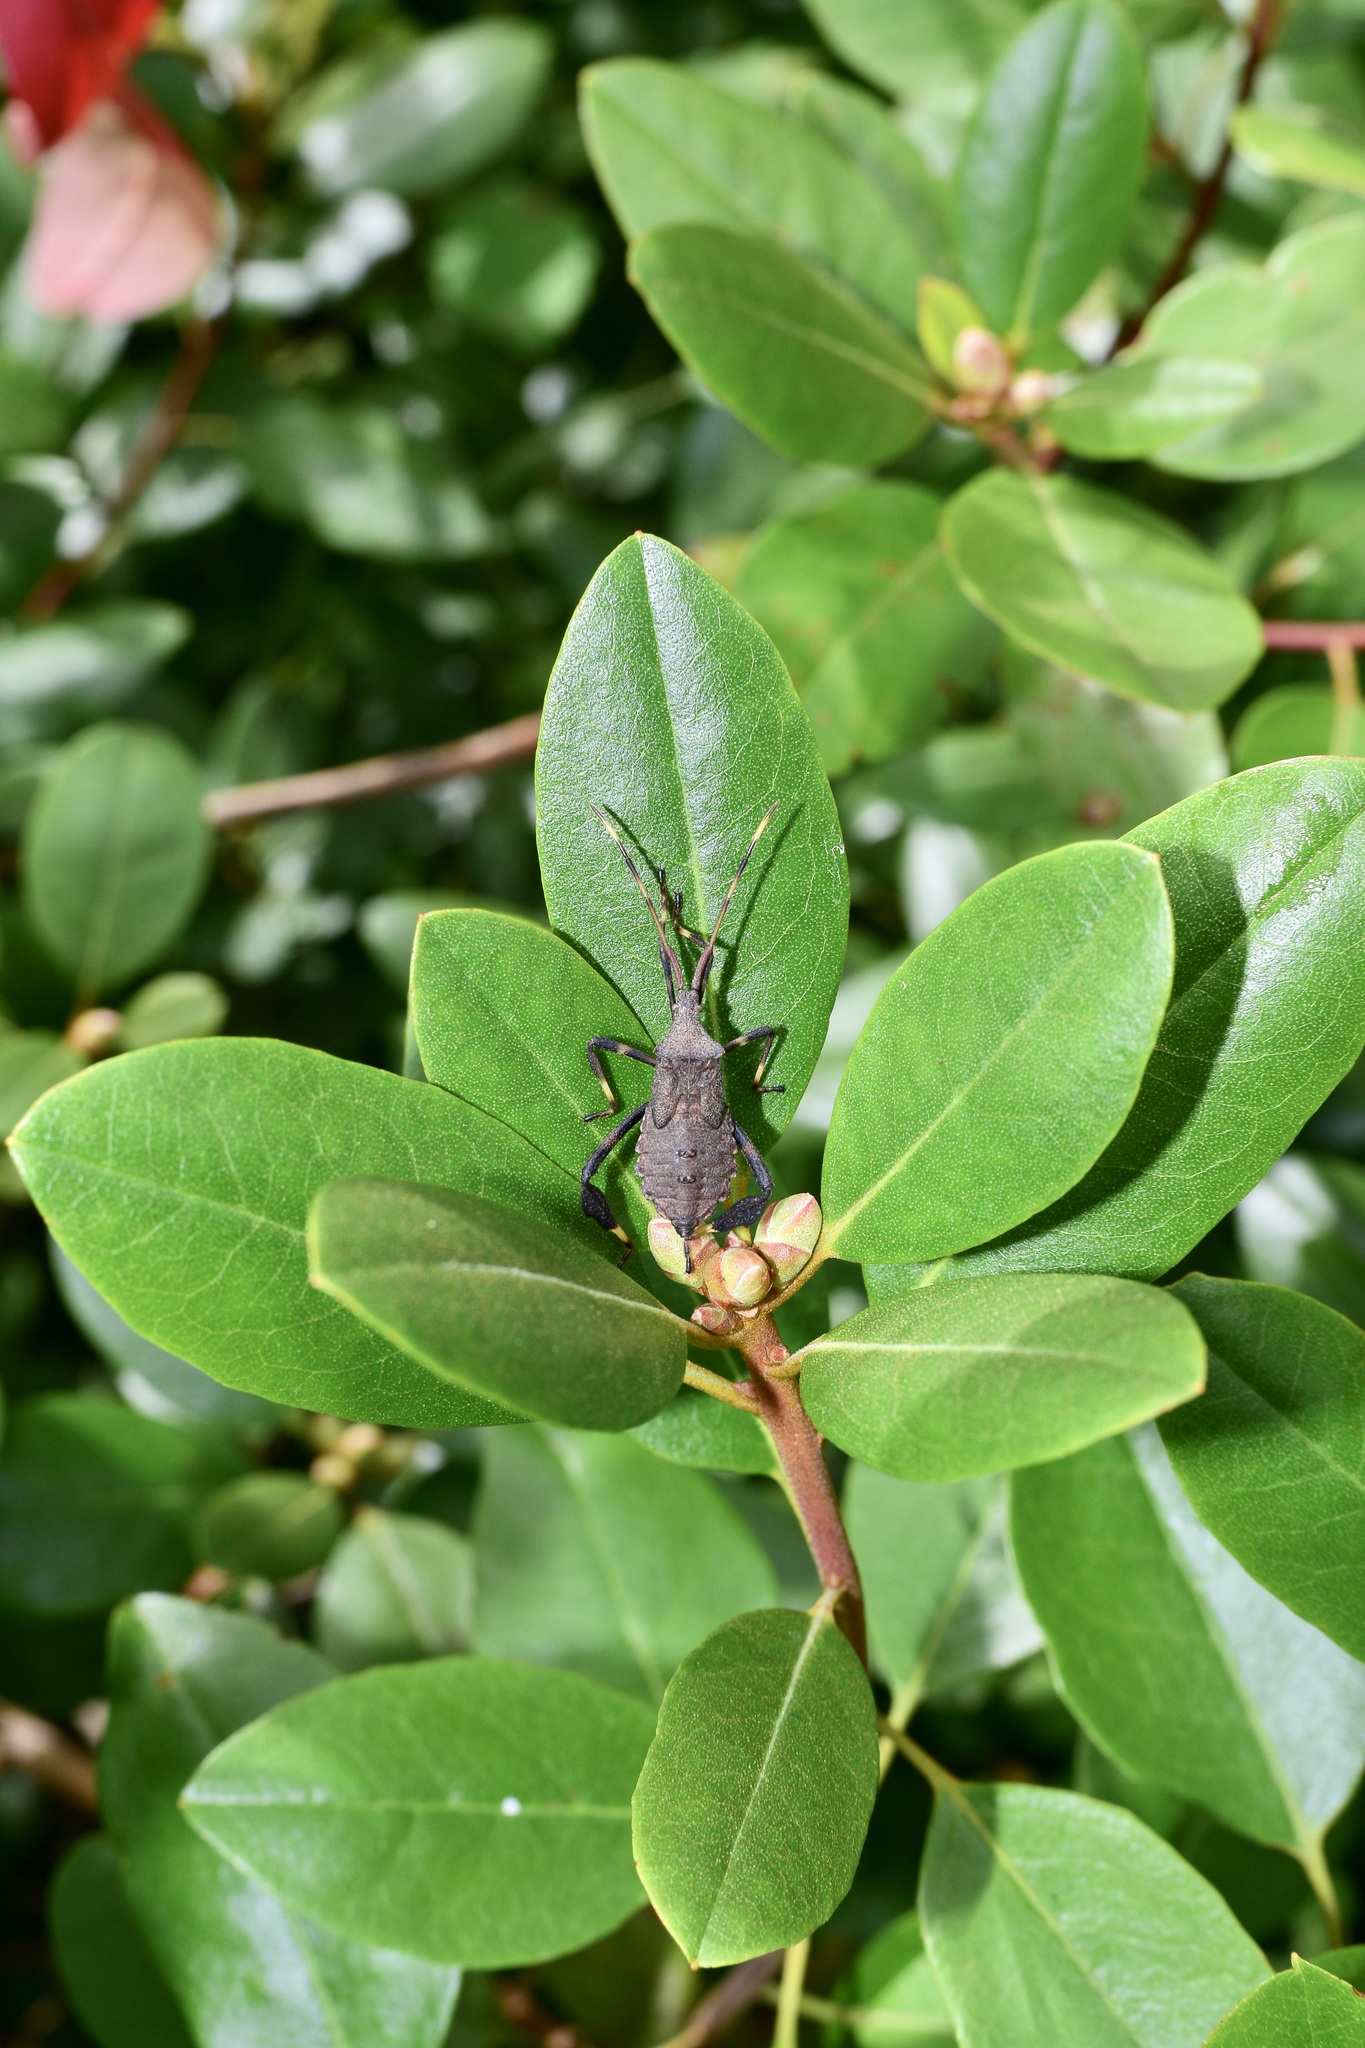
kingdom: Animalia
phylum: Arthropoda
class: Insecta
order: Hemiptera
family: Coreidae
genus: Acanthocephala
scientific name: Acanthocephala terminalis
